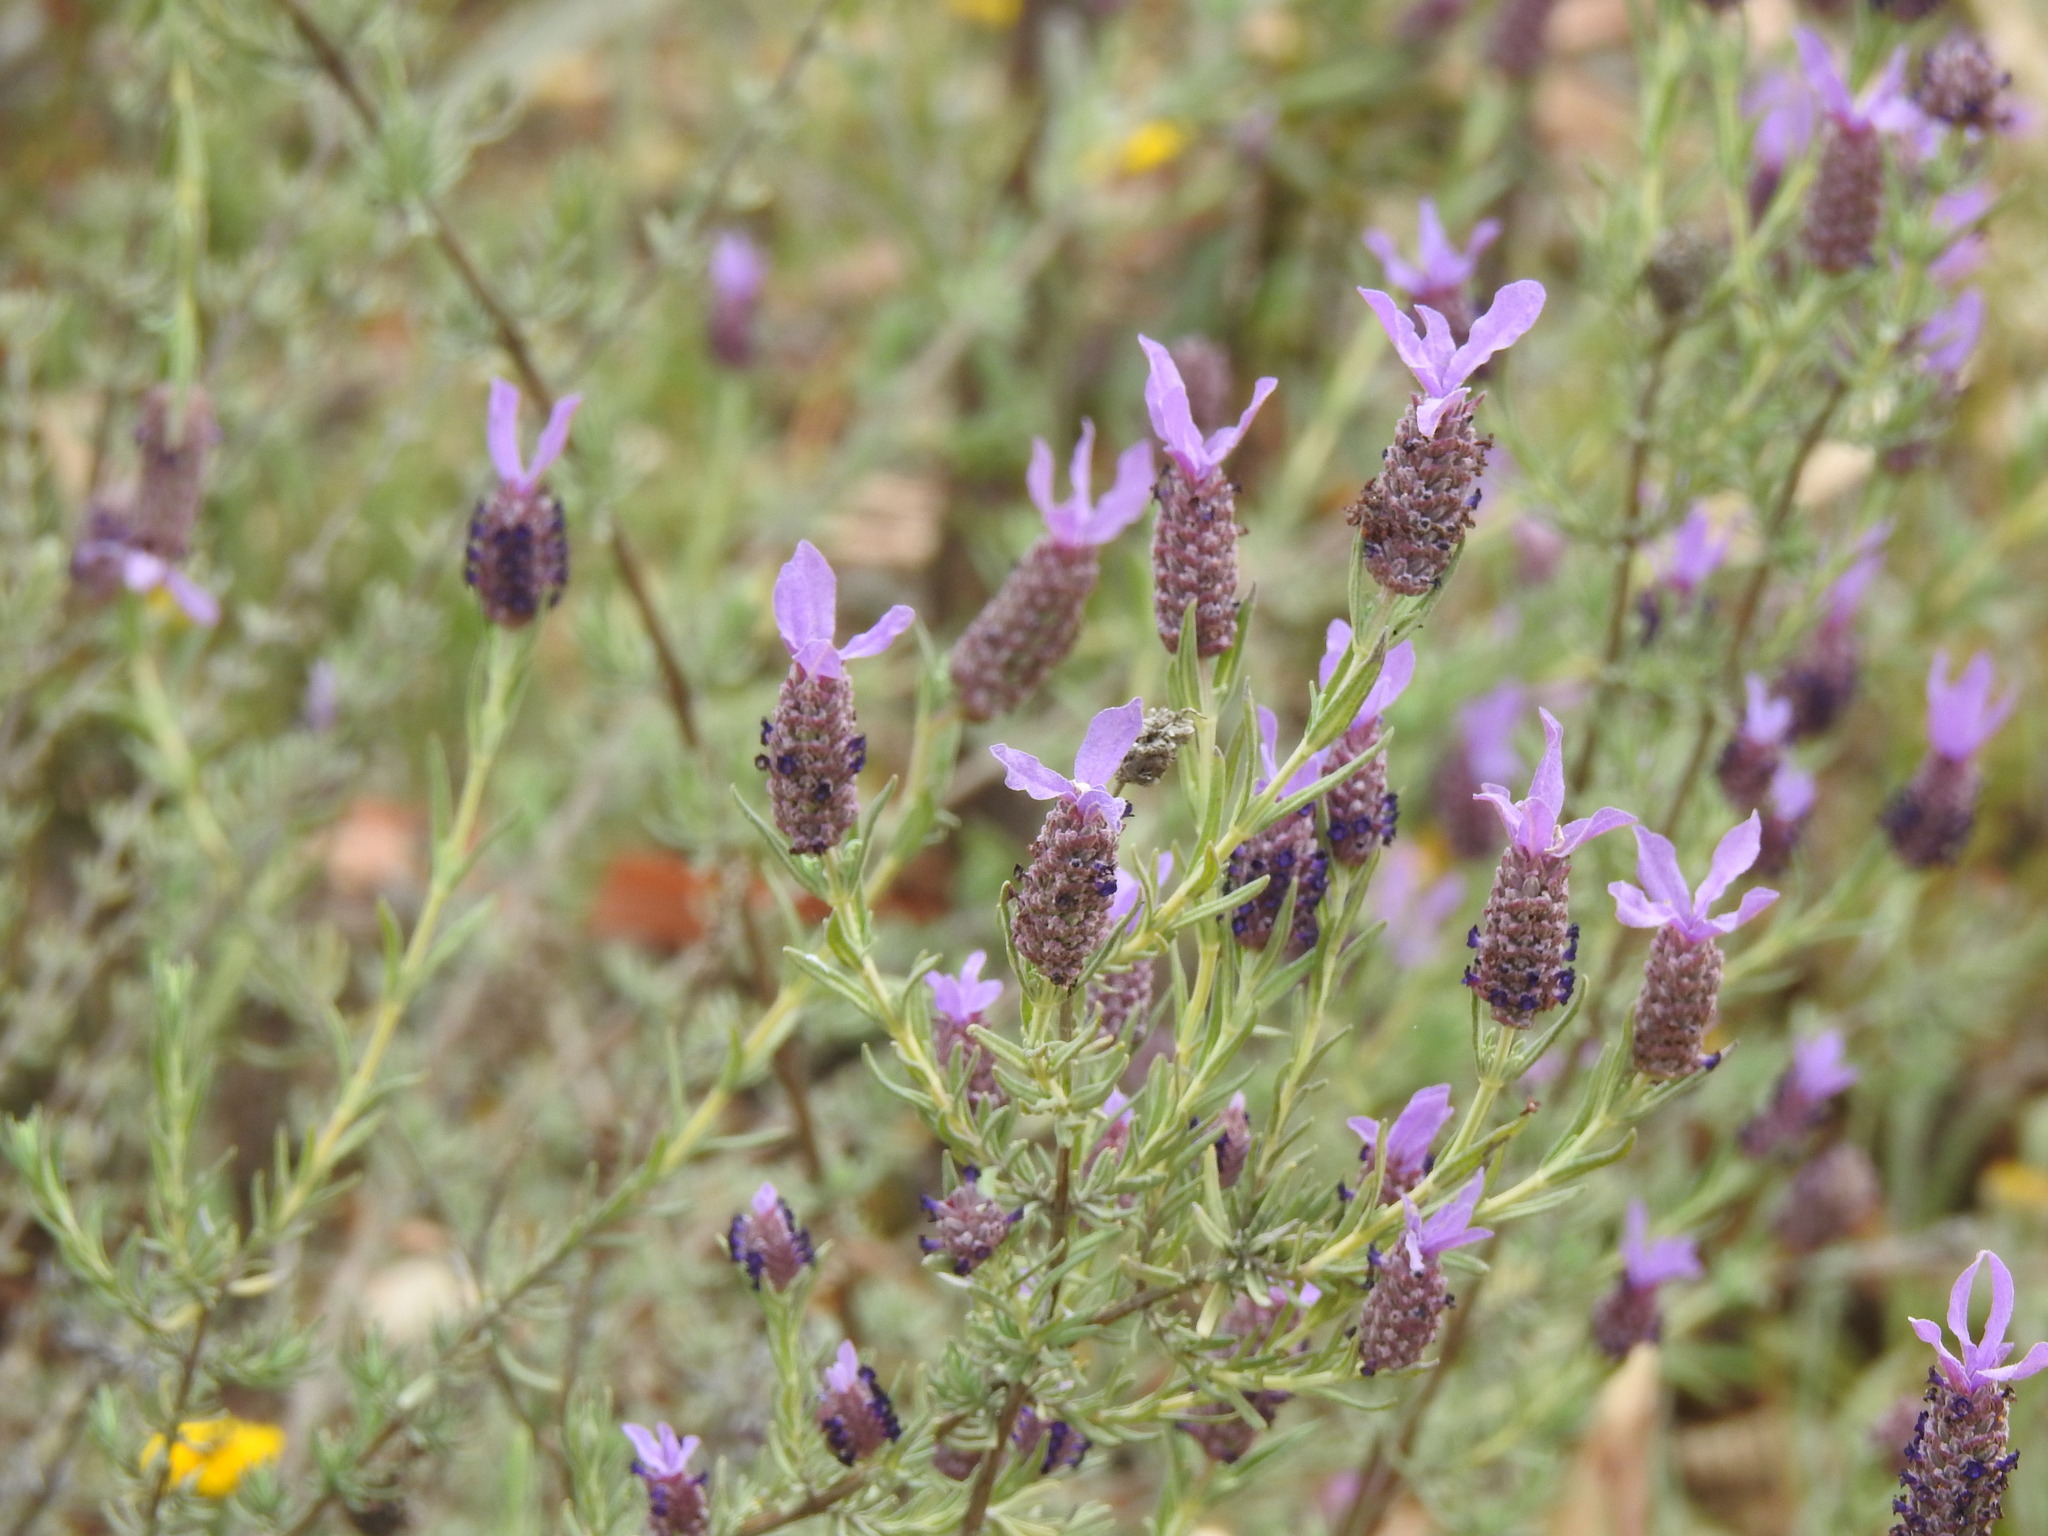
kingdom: Plantae
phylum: Tracheophyta
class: Magnoliopsida
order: Lamiales
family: Lamiaceae
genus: Lavandula
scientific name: Lavandula stoechas
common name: French lavender
